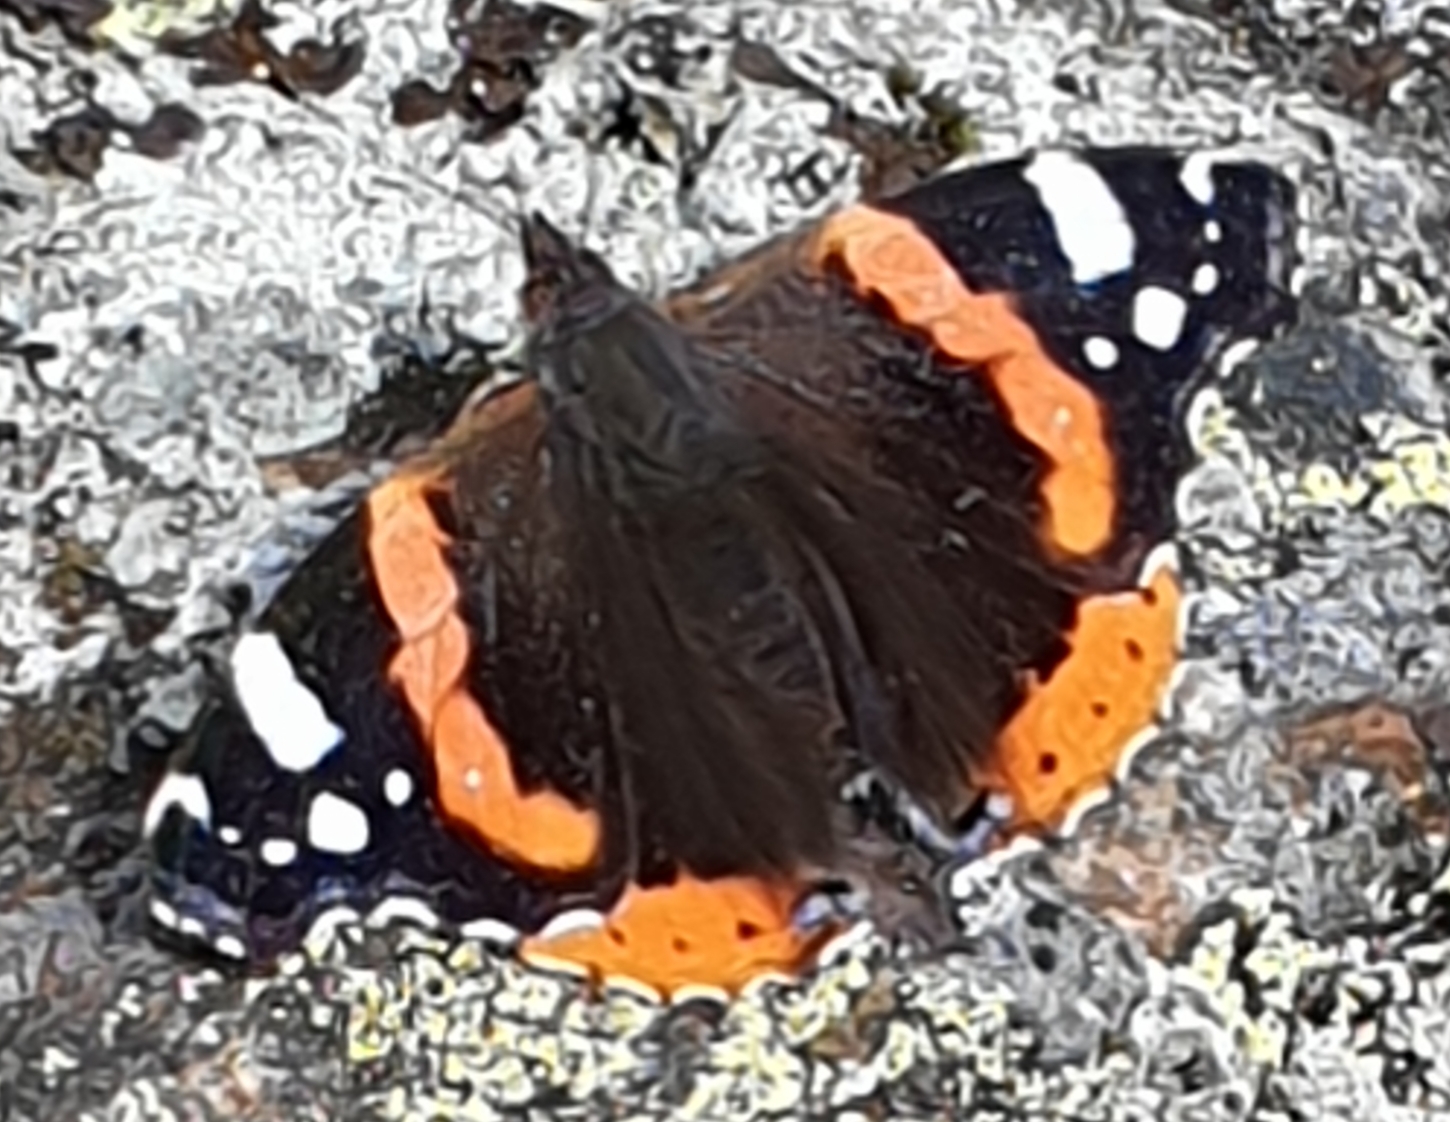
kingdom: Animalia
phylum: Arthropoda
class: Insecta
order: Lepidoptera
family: Nymphalidae
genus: Vanessa
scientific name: Vanessa atalanta
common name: Red admiral
